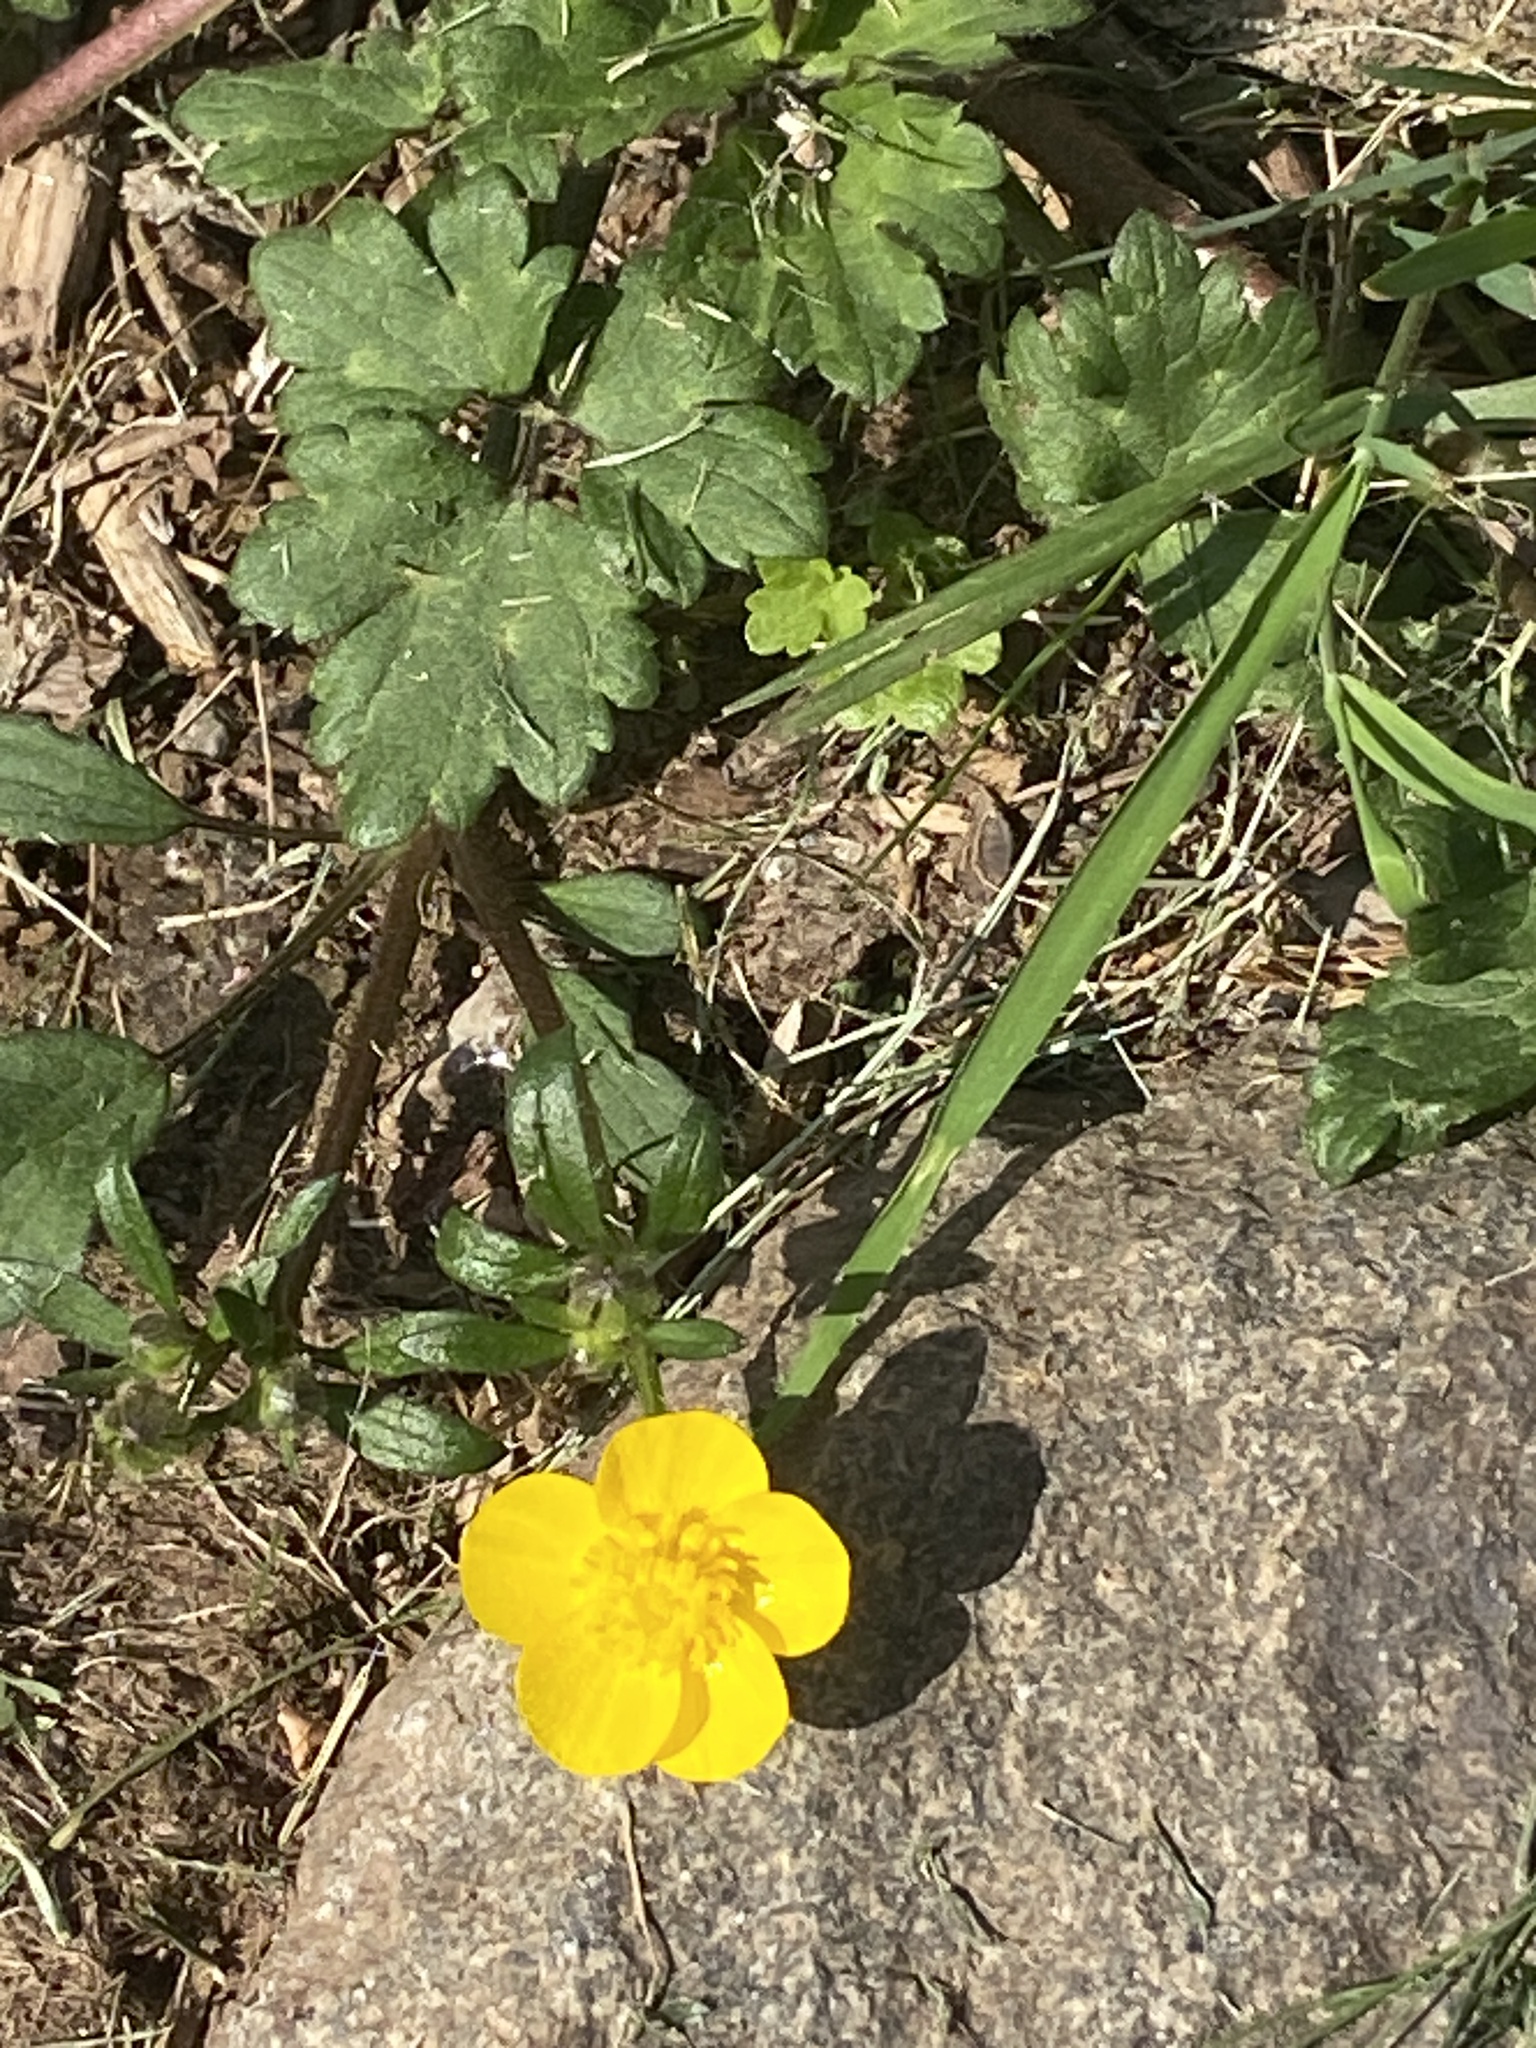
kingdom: Plantae
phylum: Tracheophyta
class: Magnoliopsida
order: Ranunculales
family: Ranunculaceae
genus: Ranunculus
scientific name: Ranunculus repens
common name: Creeping buttercup
